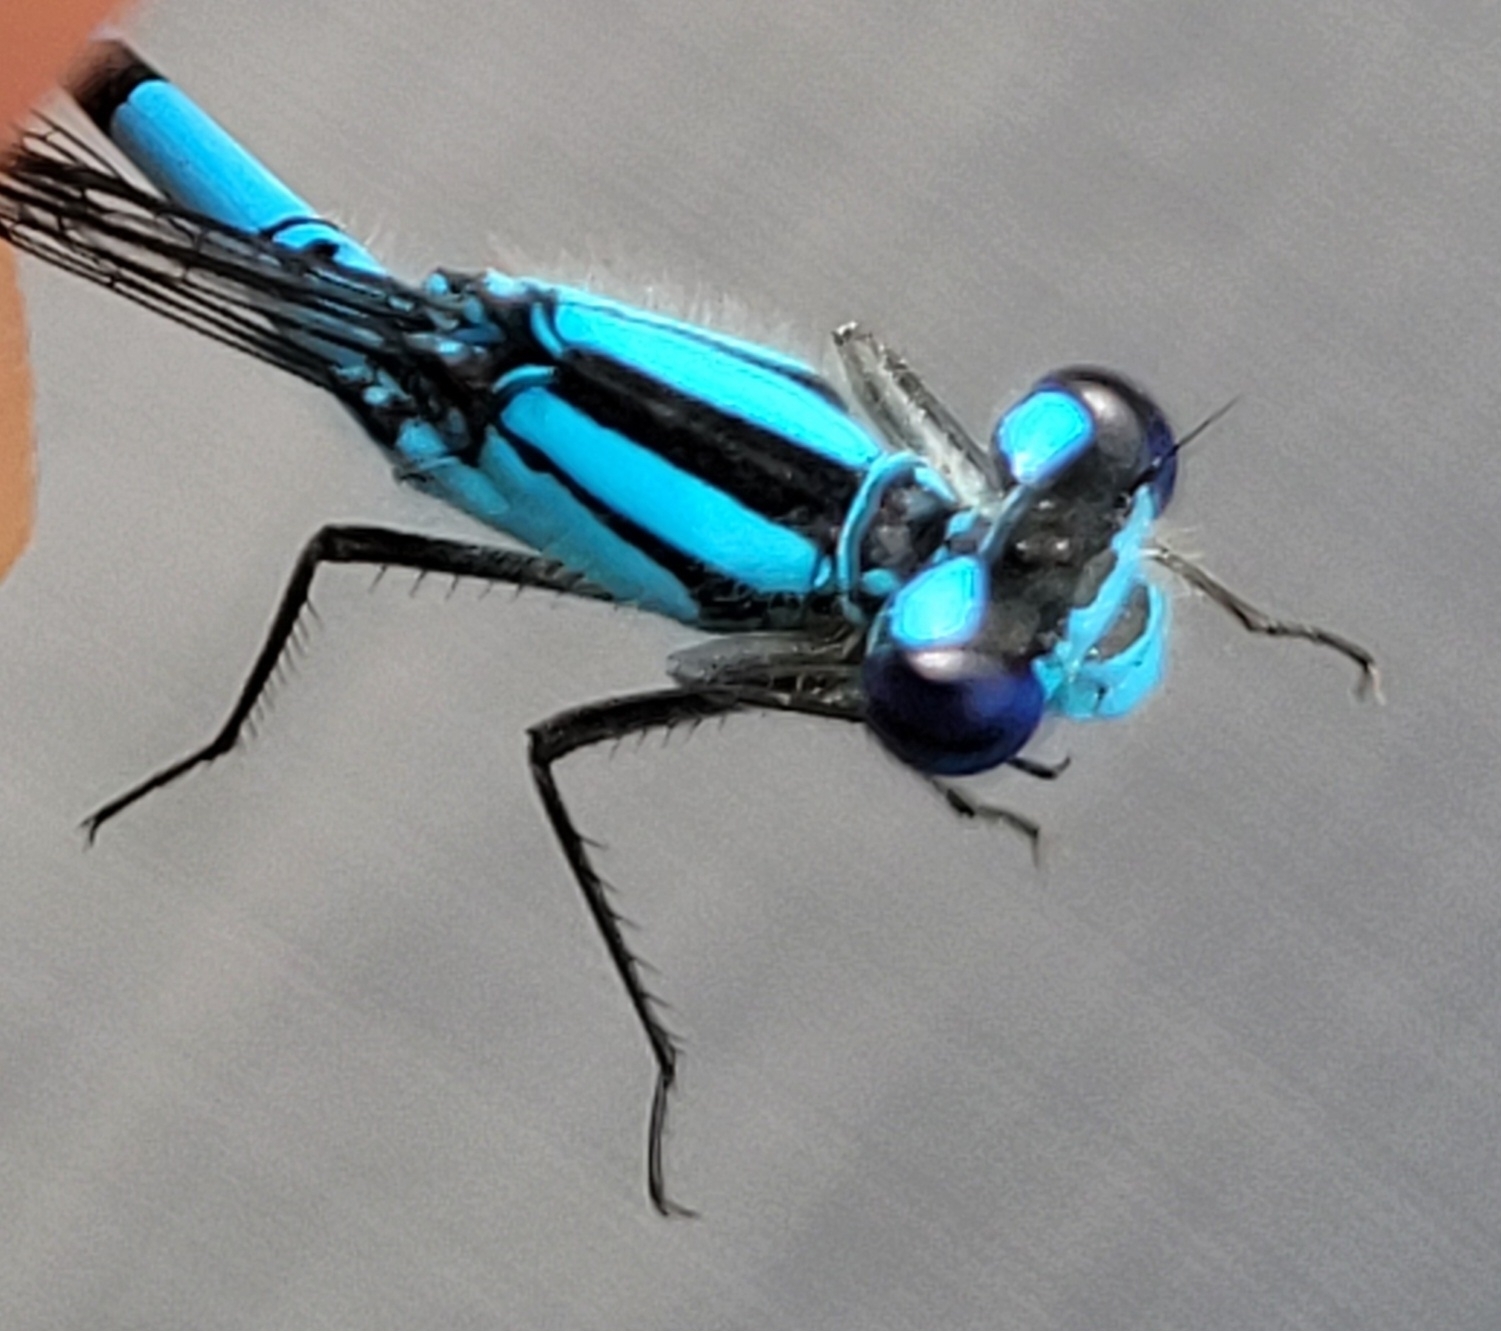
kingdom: Animalia
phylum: Arthropoda
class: Insecta
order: Odonata
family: Coenagrionidae
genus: Enallagma
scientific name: Enallagma boreale
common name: Boreal bluet
